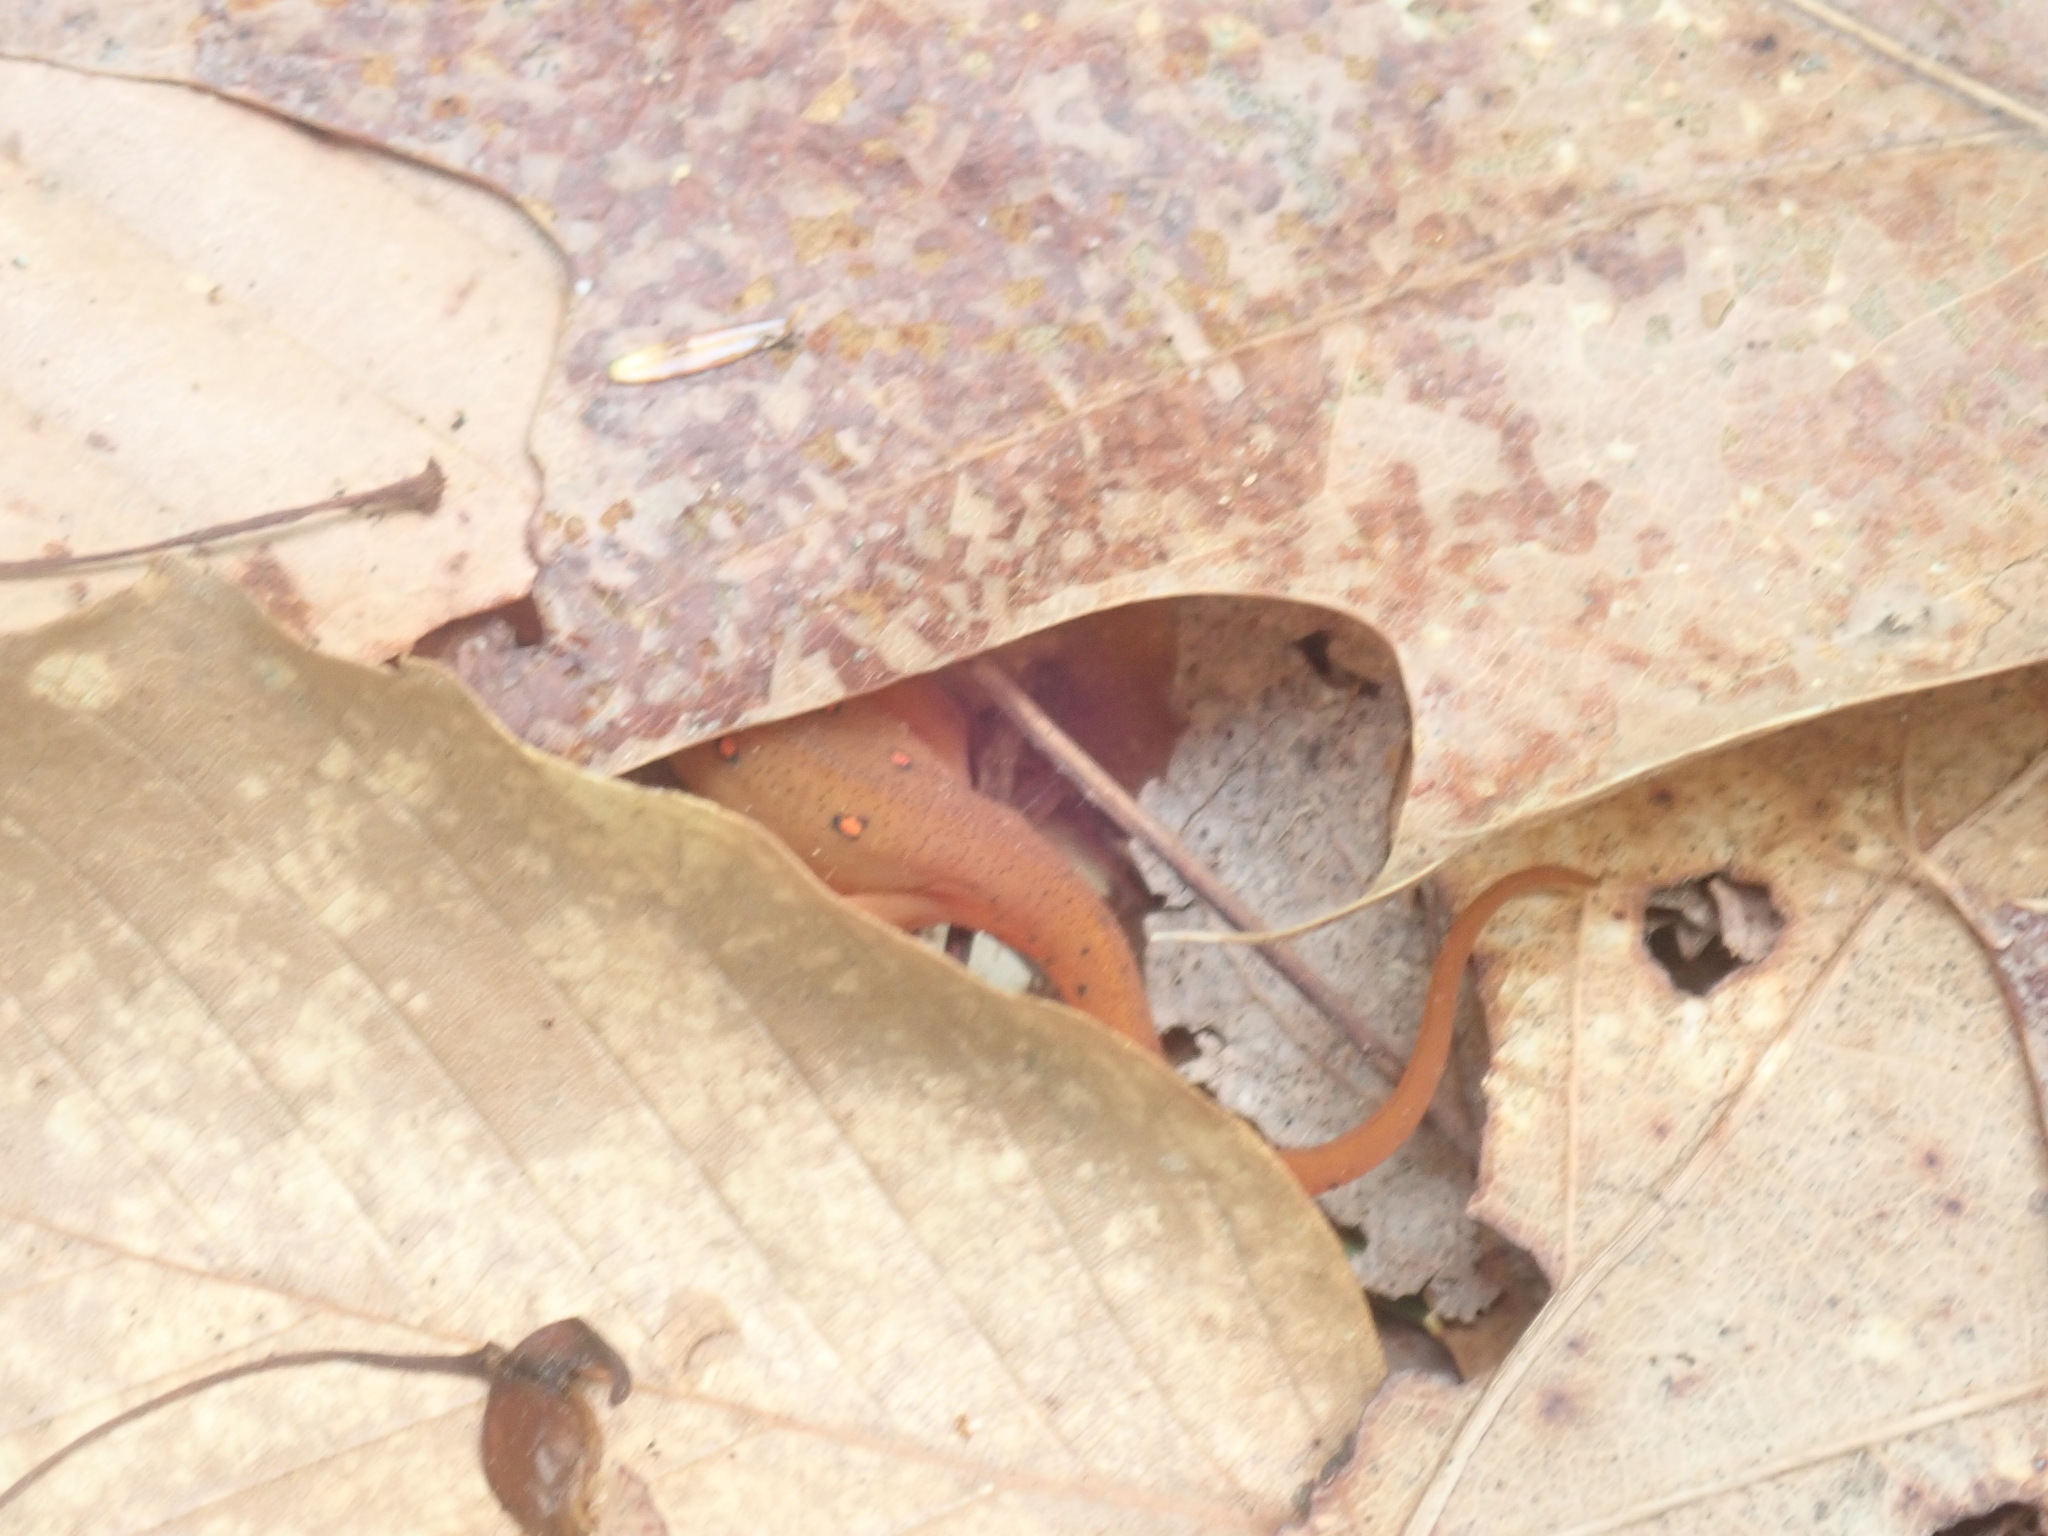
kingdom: Animalia
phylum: Chordata
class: Amphibia
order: Caudata
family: Salamandridae
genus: Notophthalmus
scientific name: Notophthalmus viridescens
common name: Eastern newt
